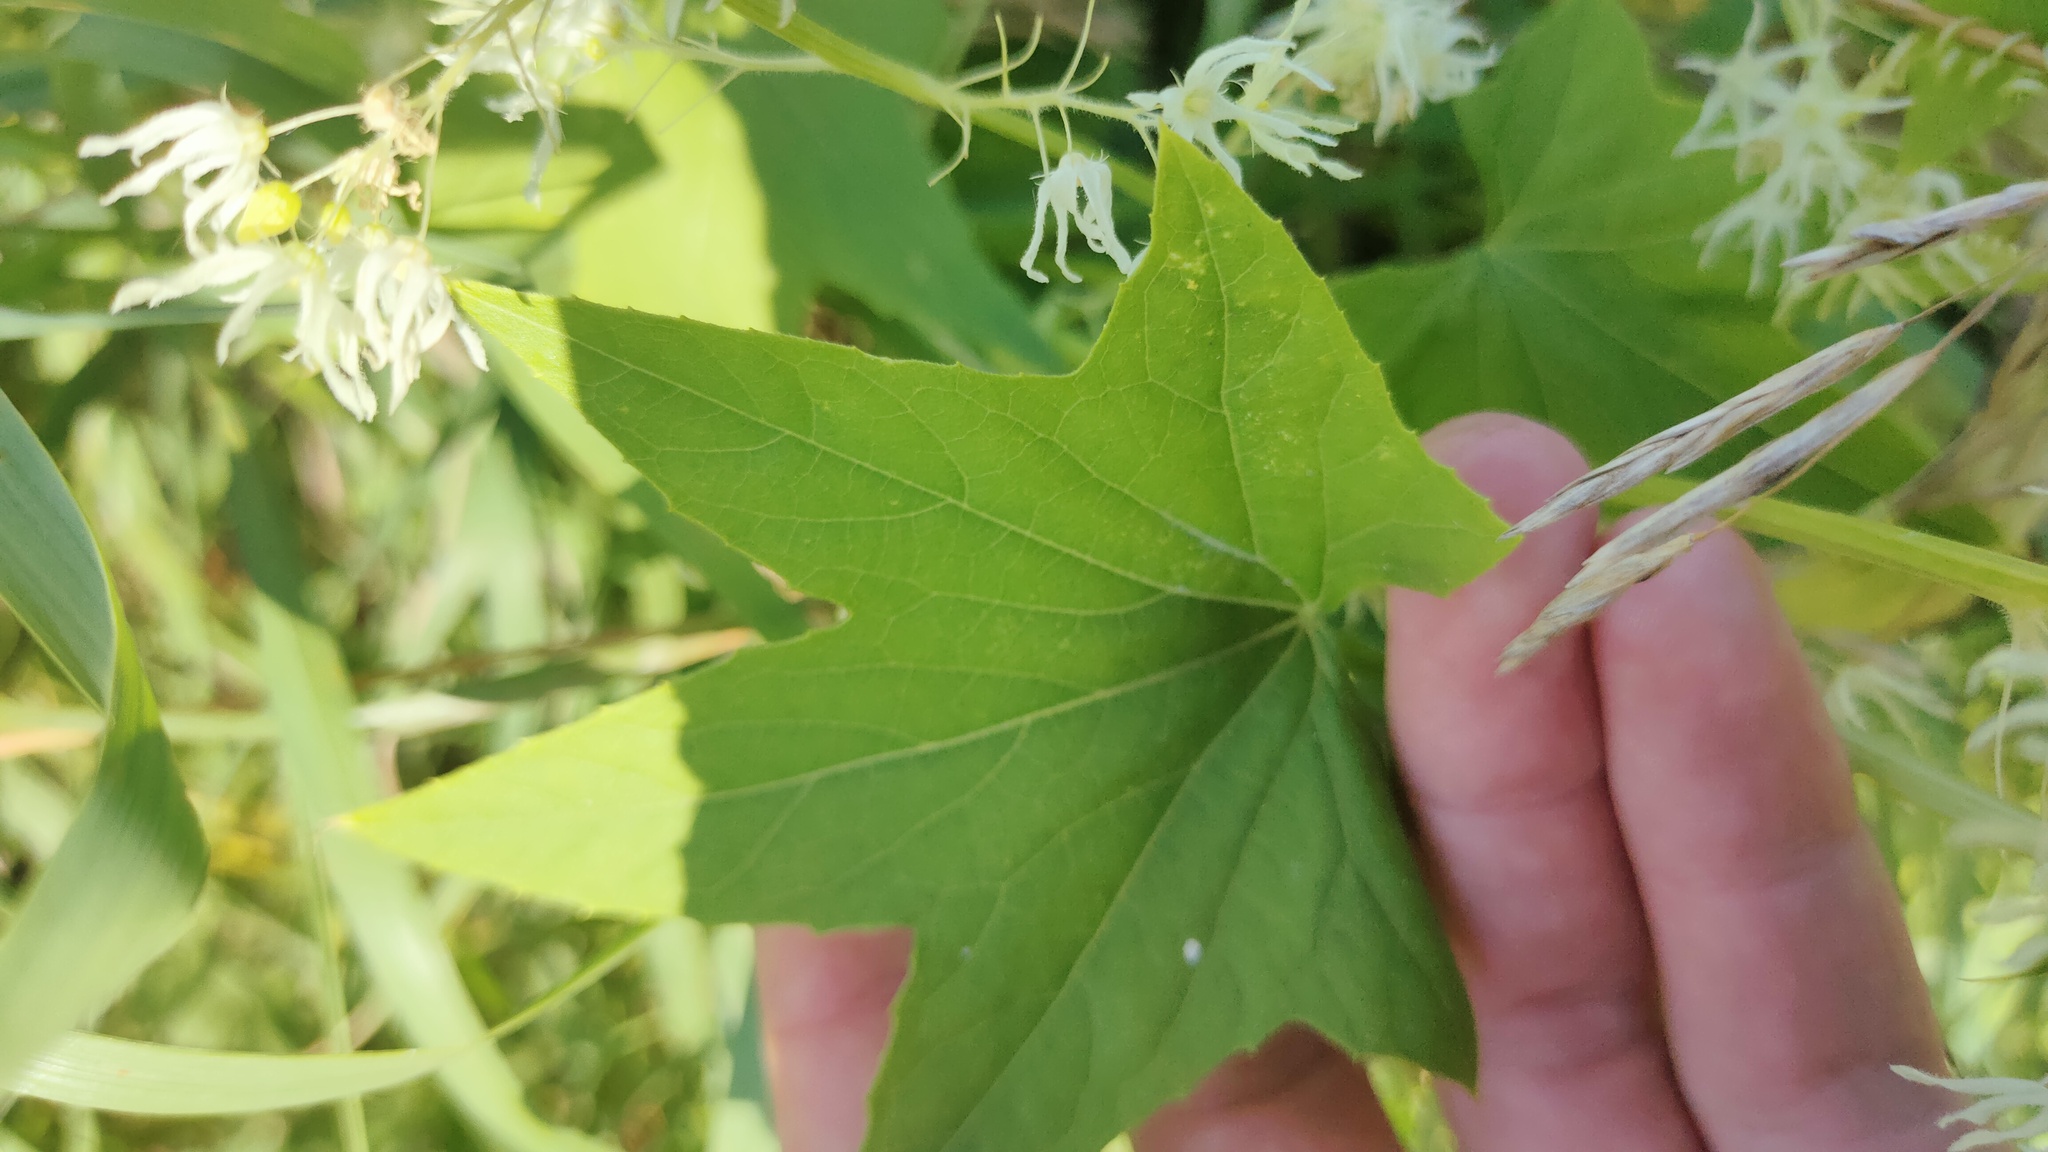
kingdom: Plantae
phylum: Tracheophyta
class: Magnoliopsida
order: Cucurbitales
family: Cucurbitaceae
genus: Echinocystis
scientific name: Echinocystis lobata
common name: Wild cucumber
